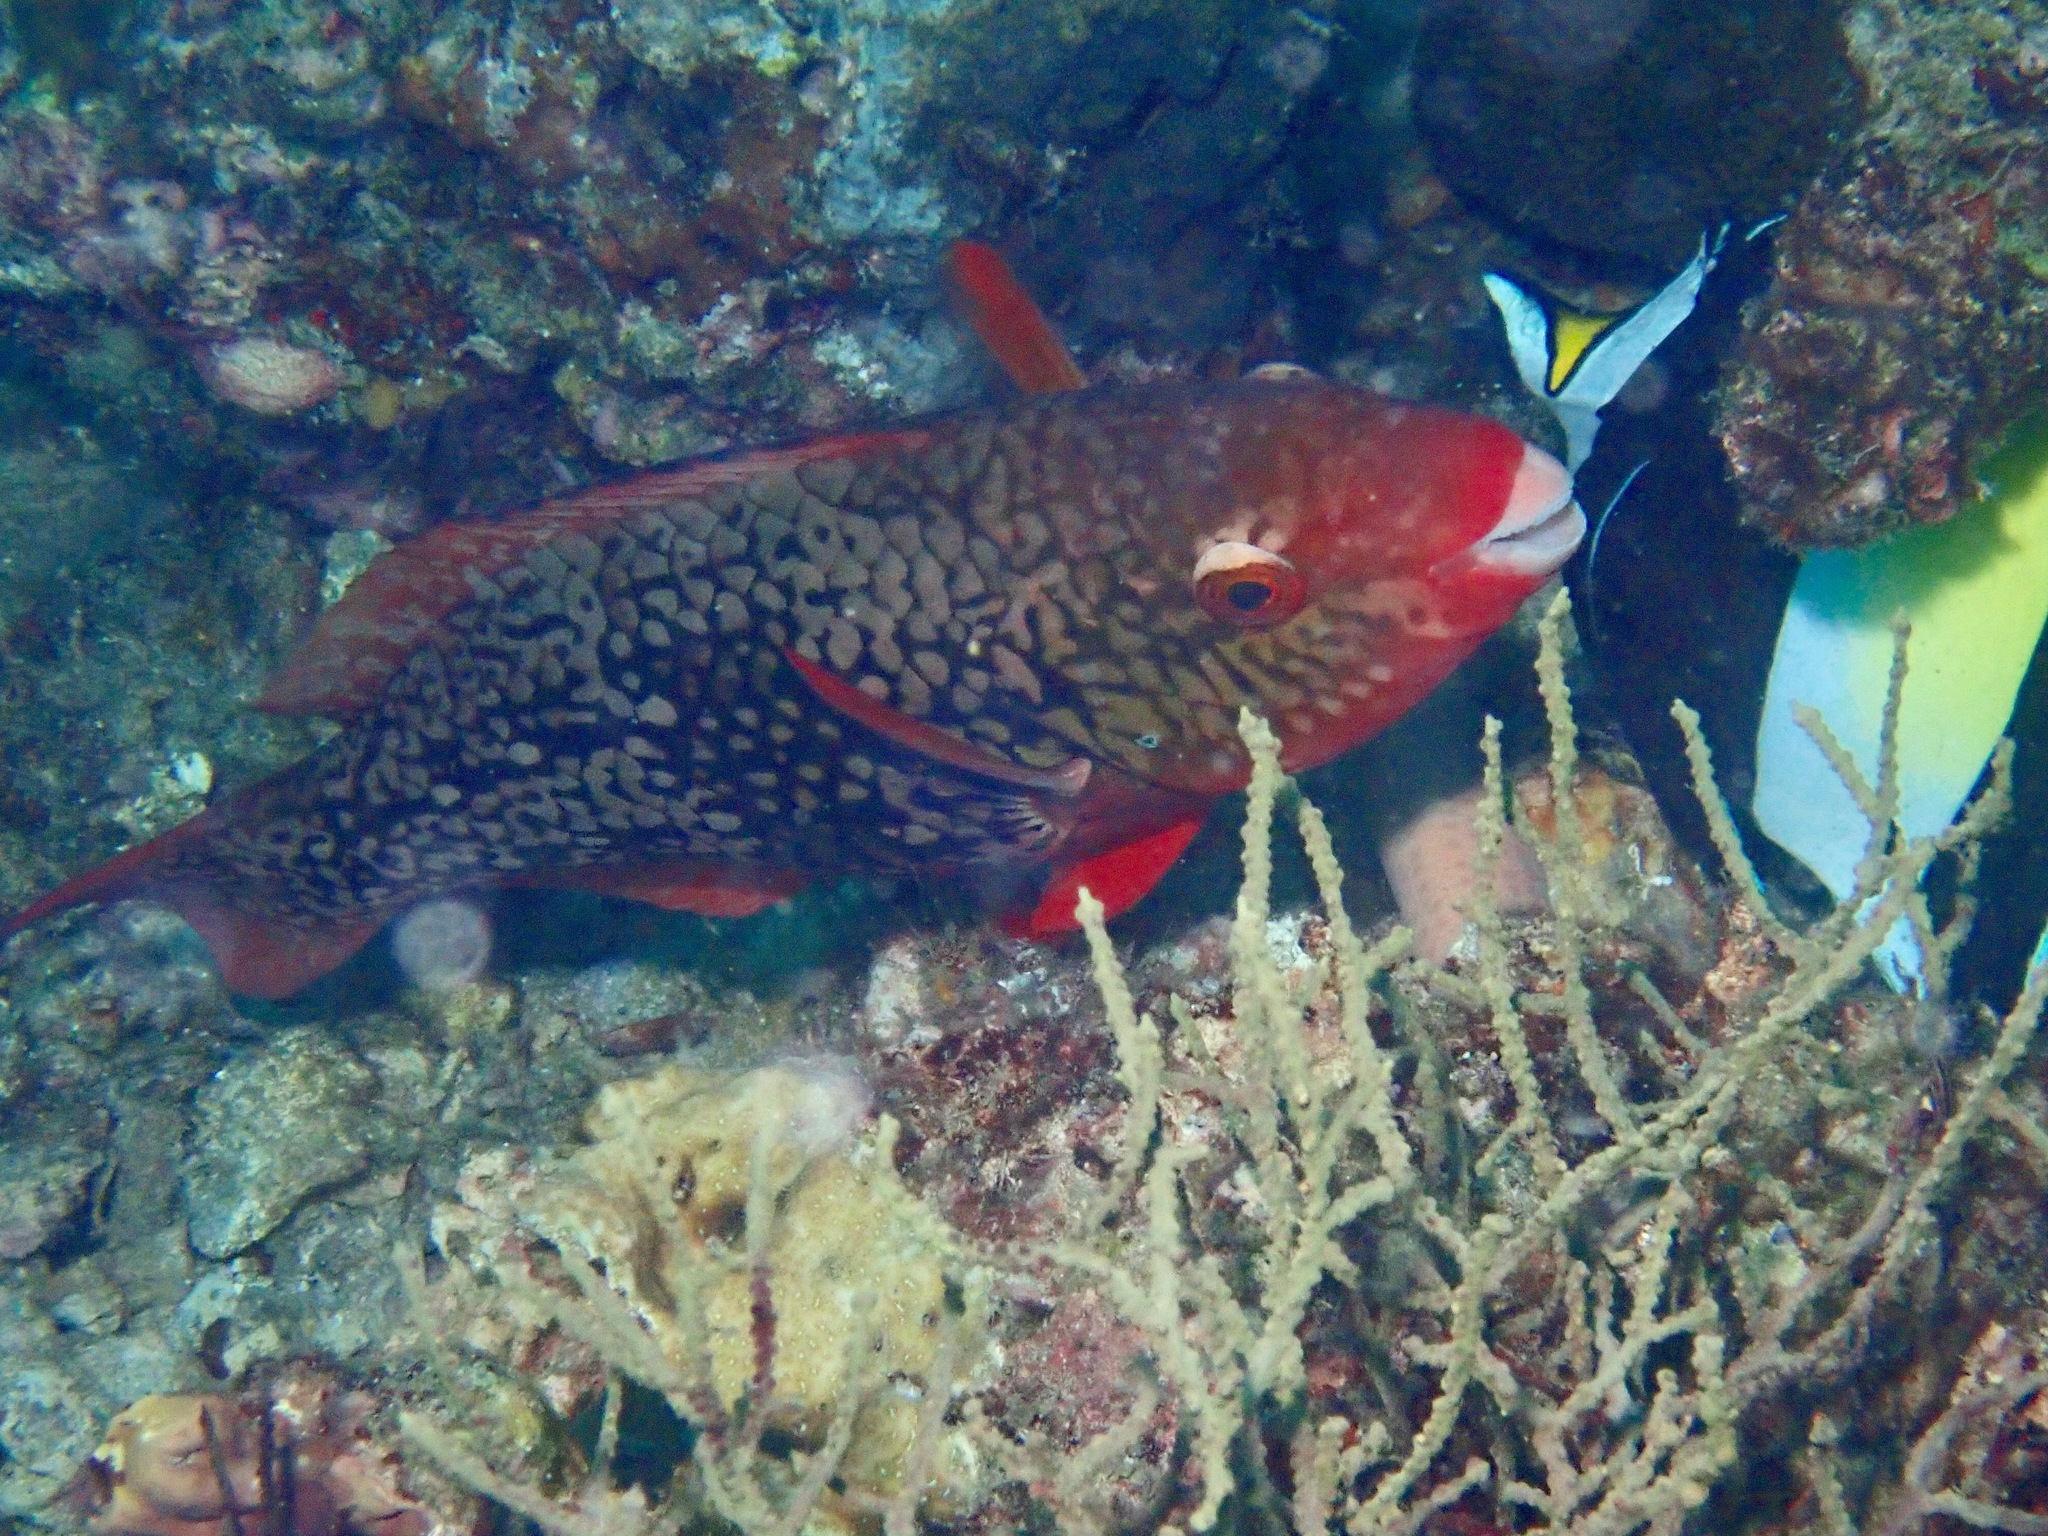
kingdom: Animalia
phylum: Chordata
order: Perciformes
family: Scaridae
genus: Scarus
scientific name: Scarus rubroviolaceus
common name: Ember parrotfish
